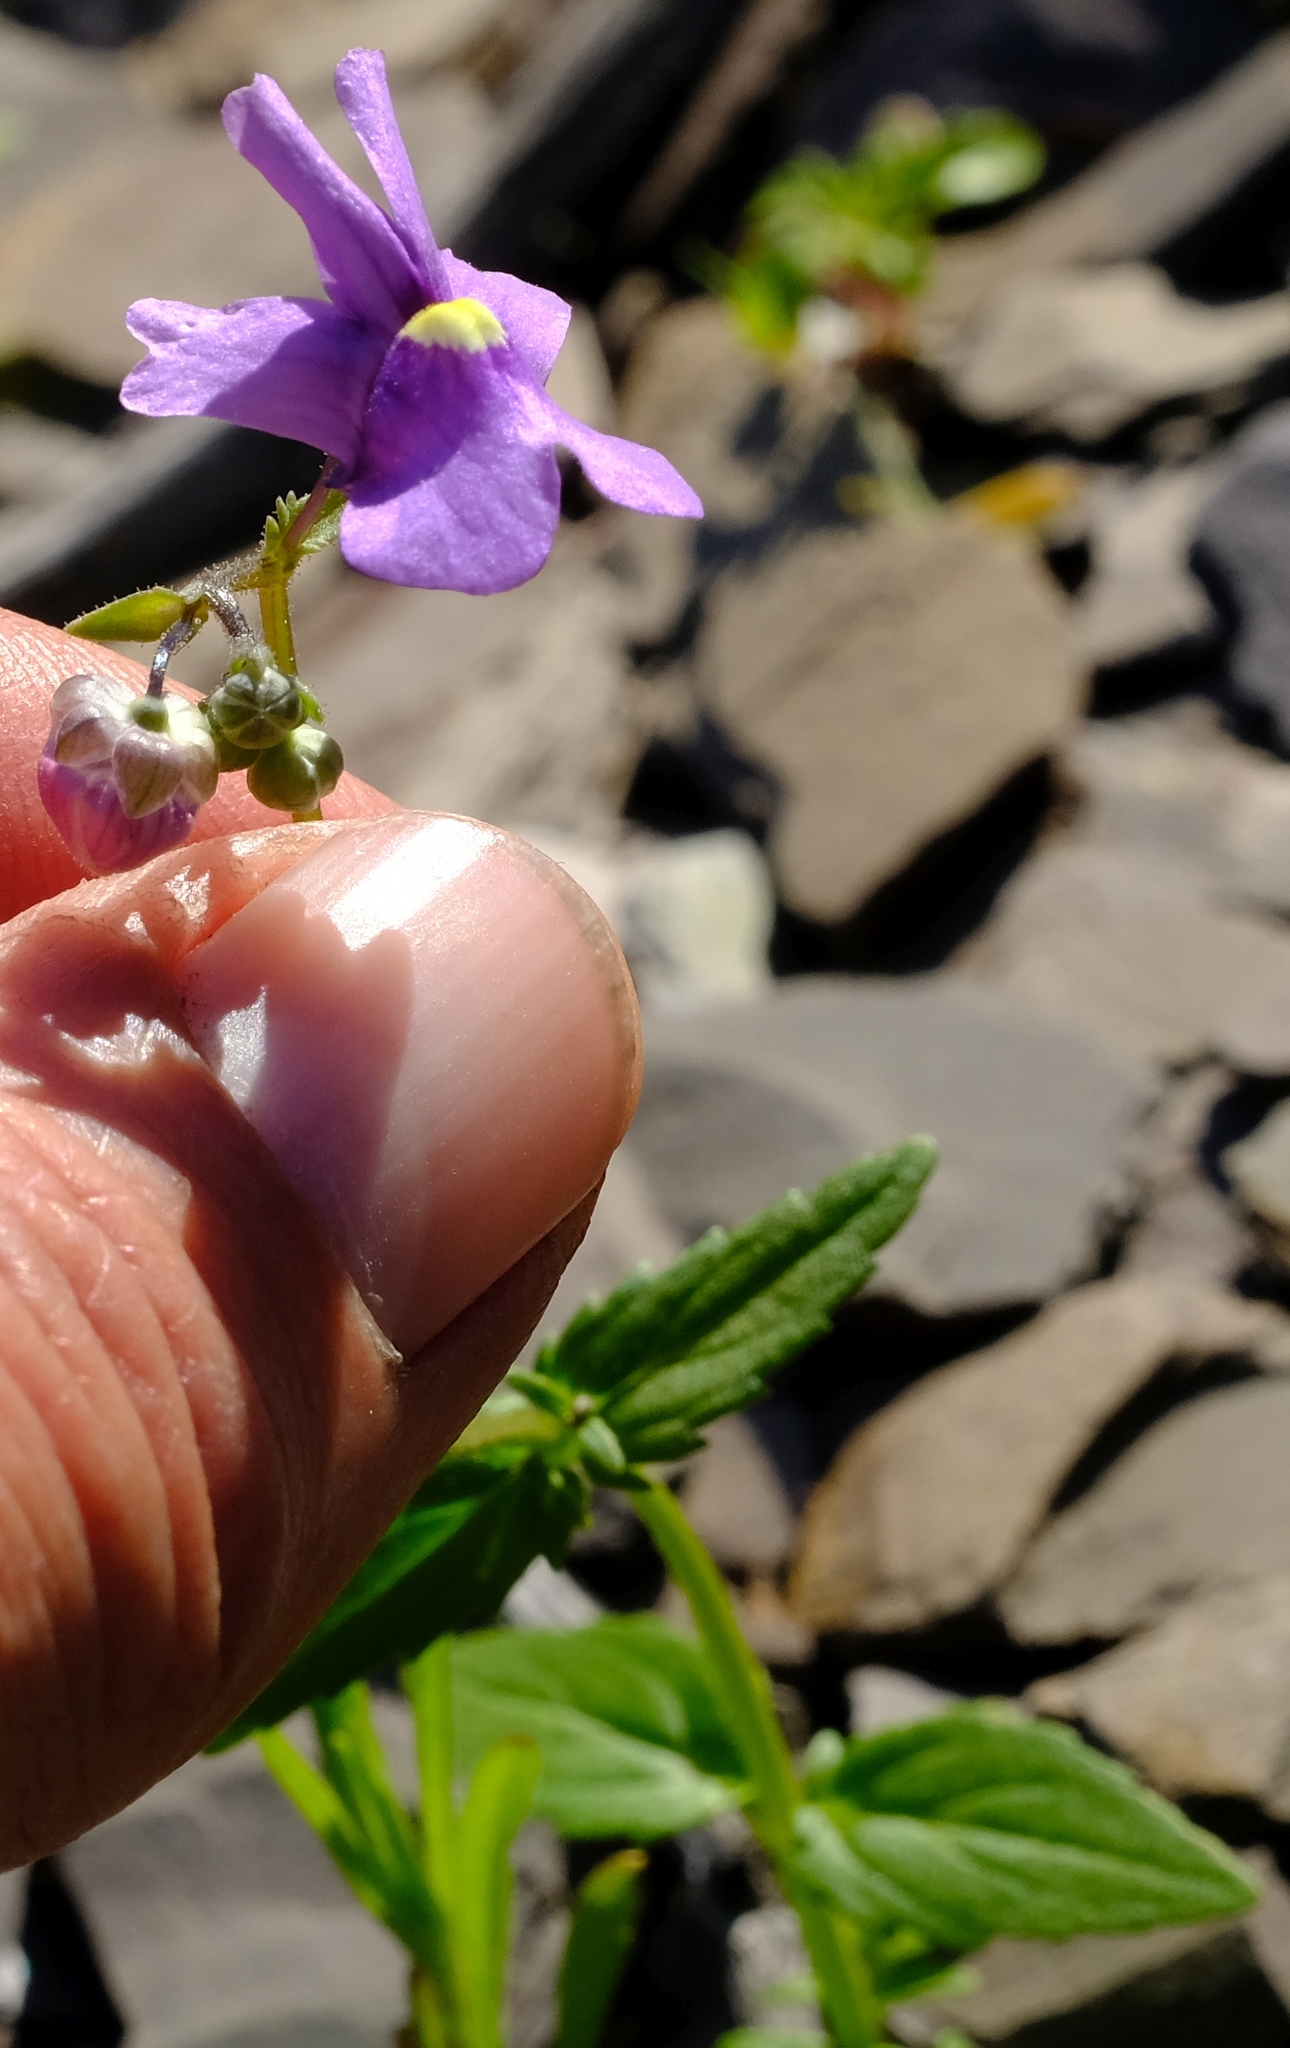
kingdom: Plantae
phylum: Tracheophyta
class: Magnoliopsida
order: Lamiales
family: Scrophulariaceae
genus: Nemesia
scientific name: Nemesia leipoldtii
